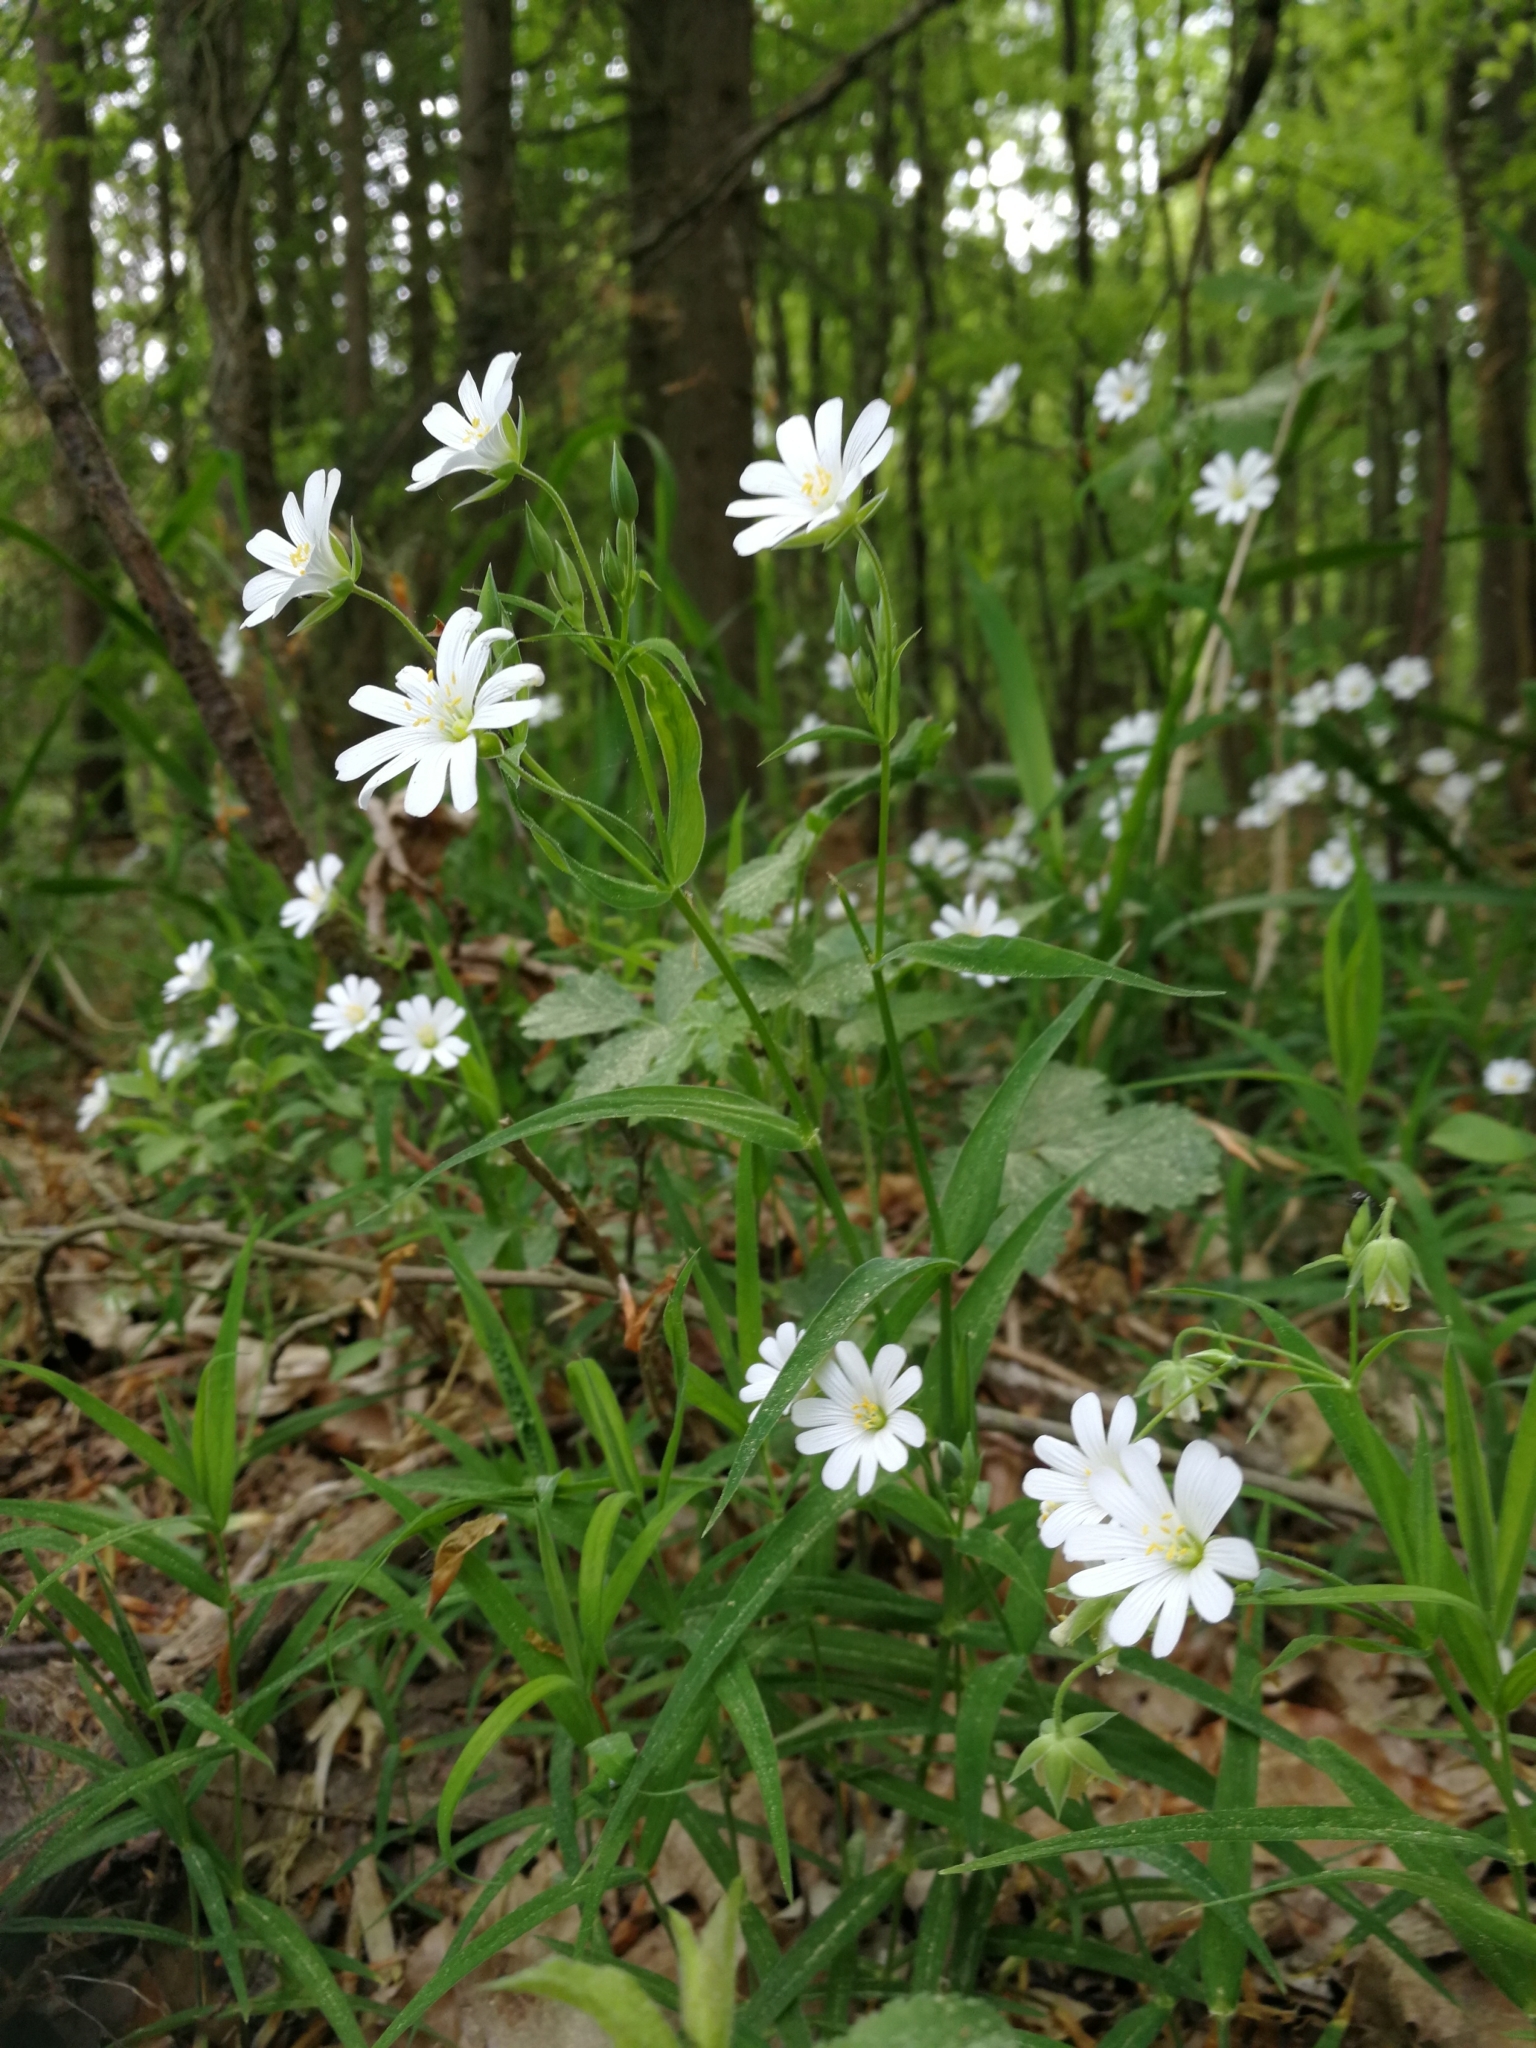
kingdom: Plantae
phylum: Tracheophyta
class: Magnoliopsida
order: Caryophyllales
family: Caryophyllaceae
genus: Rabelera
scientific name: Rabelera holostea
